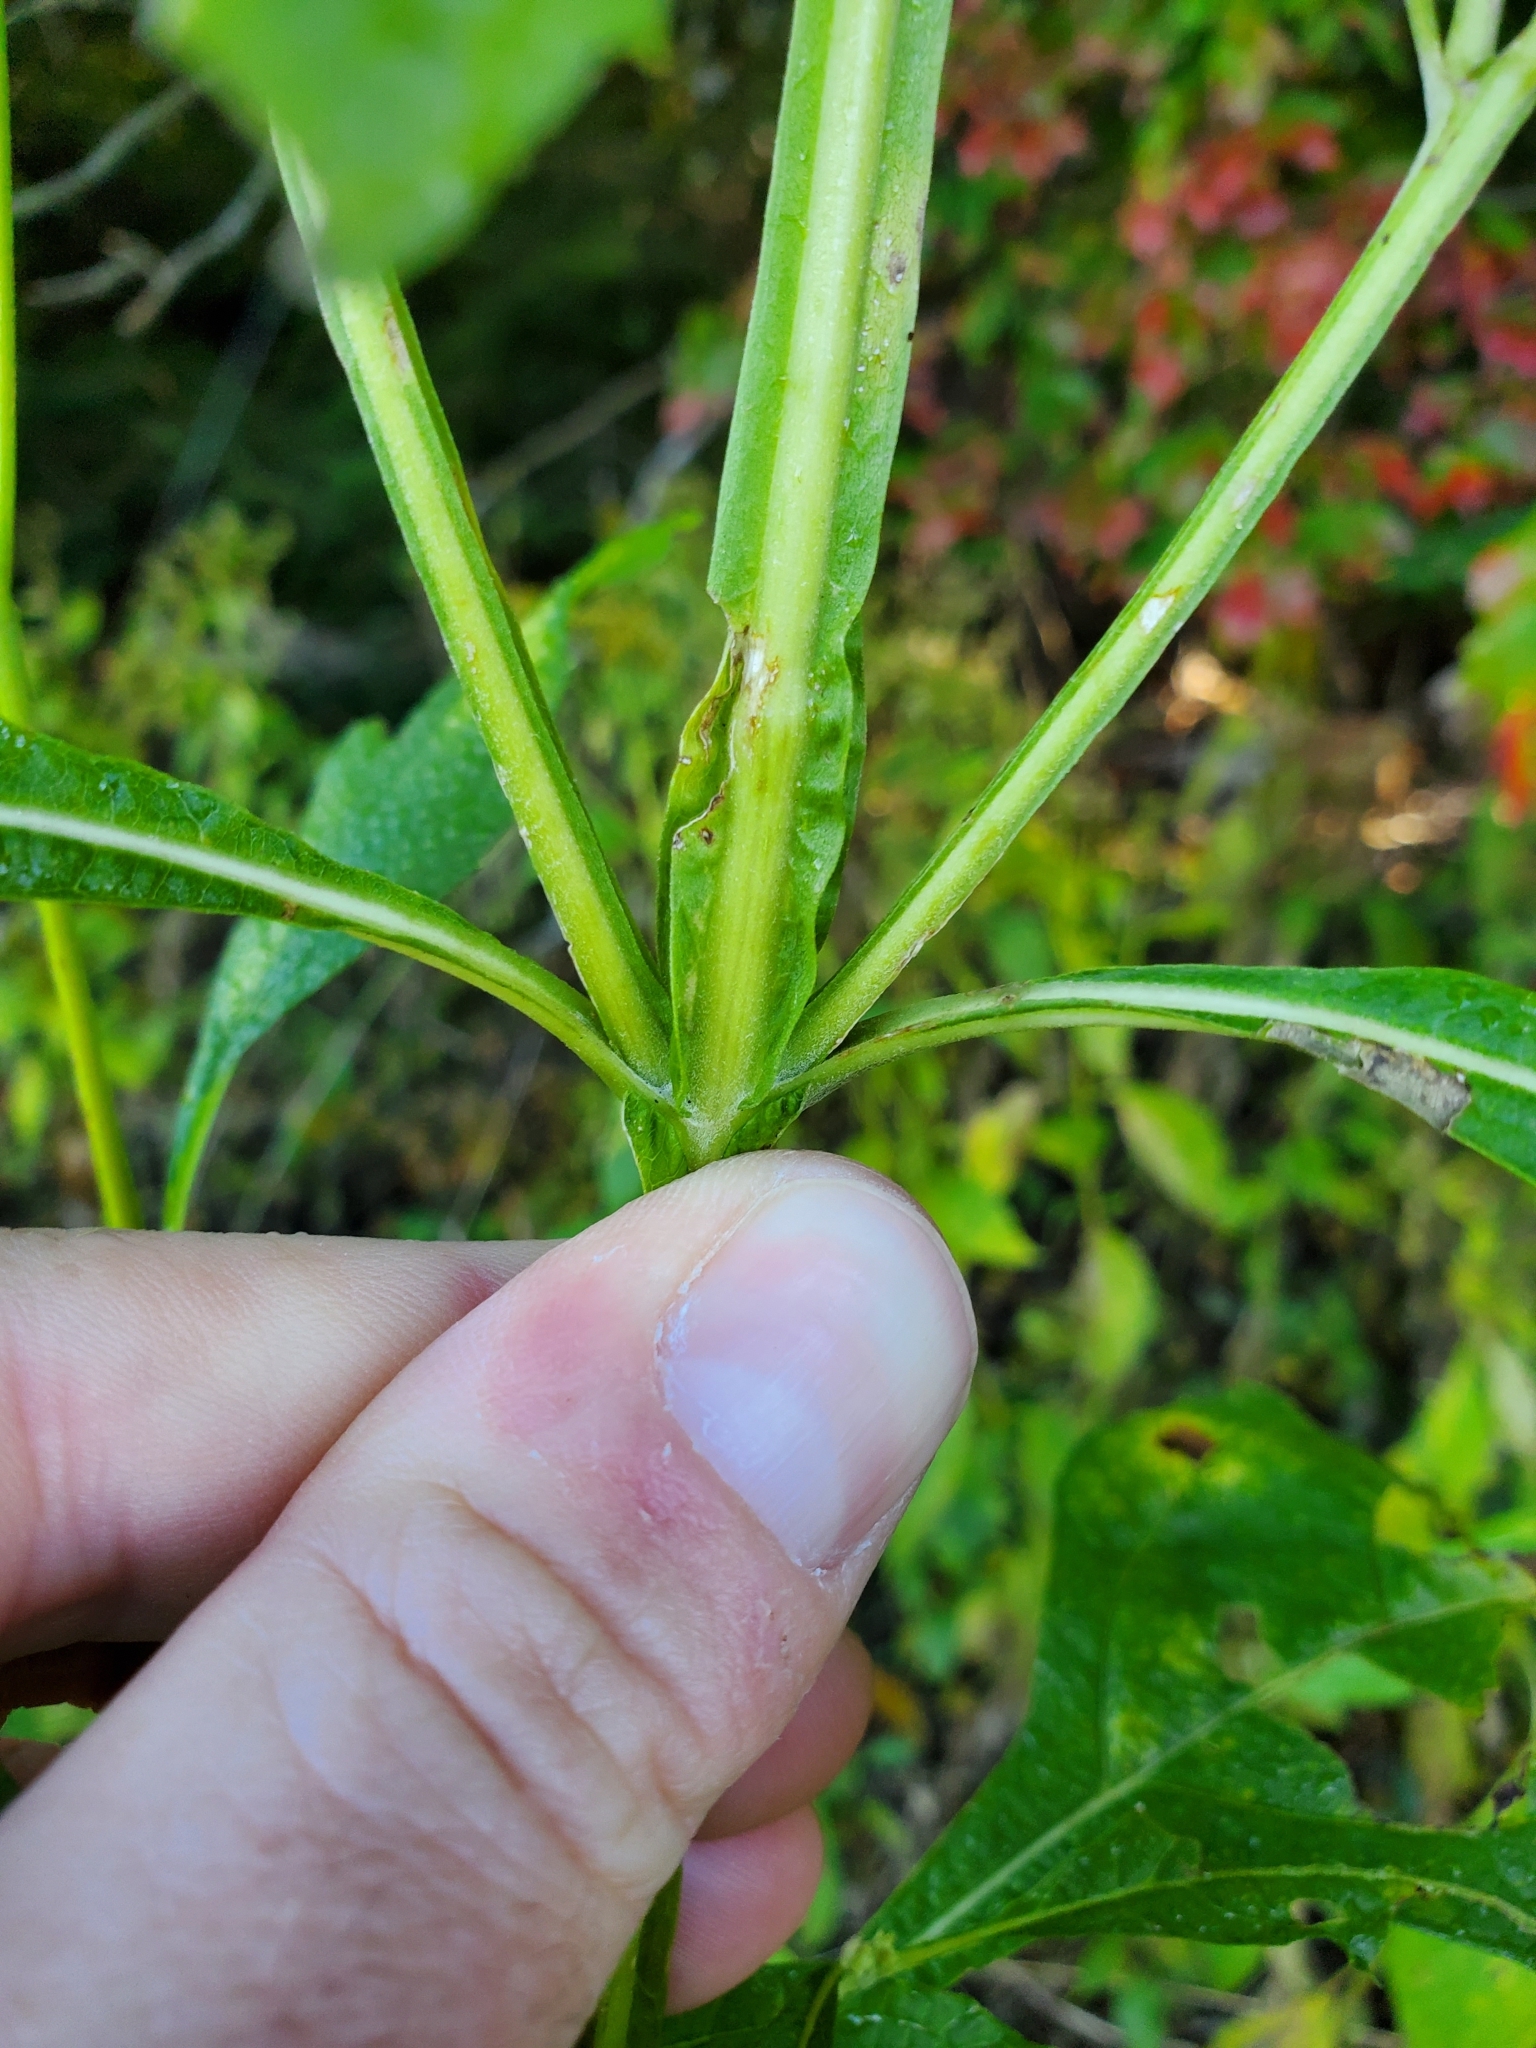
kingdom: Animalia
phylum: Arthropoda
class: Insecta
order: Diptera
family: Cecidomyiidae
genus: Schizomyia
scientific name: Schizomyia
